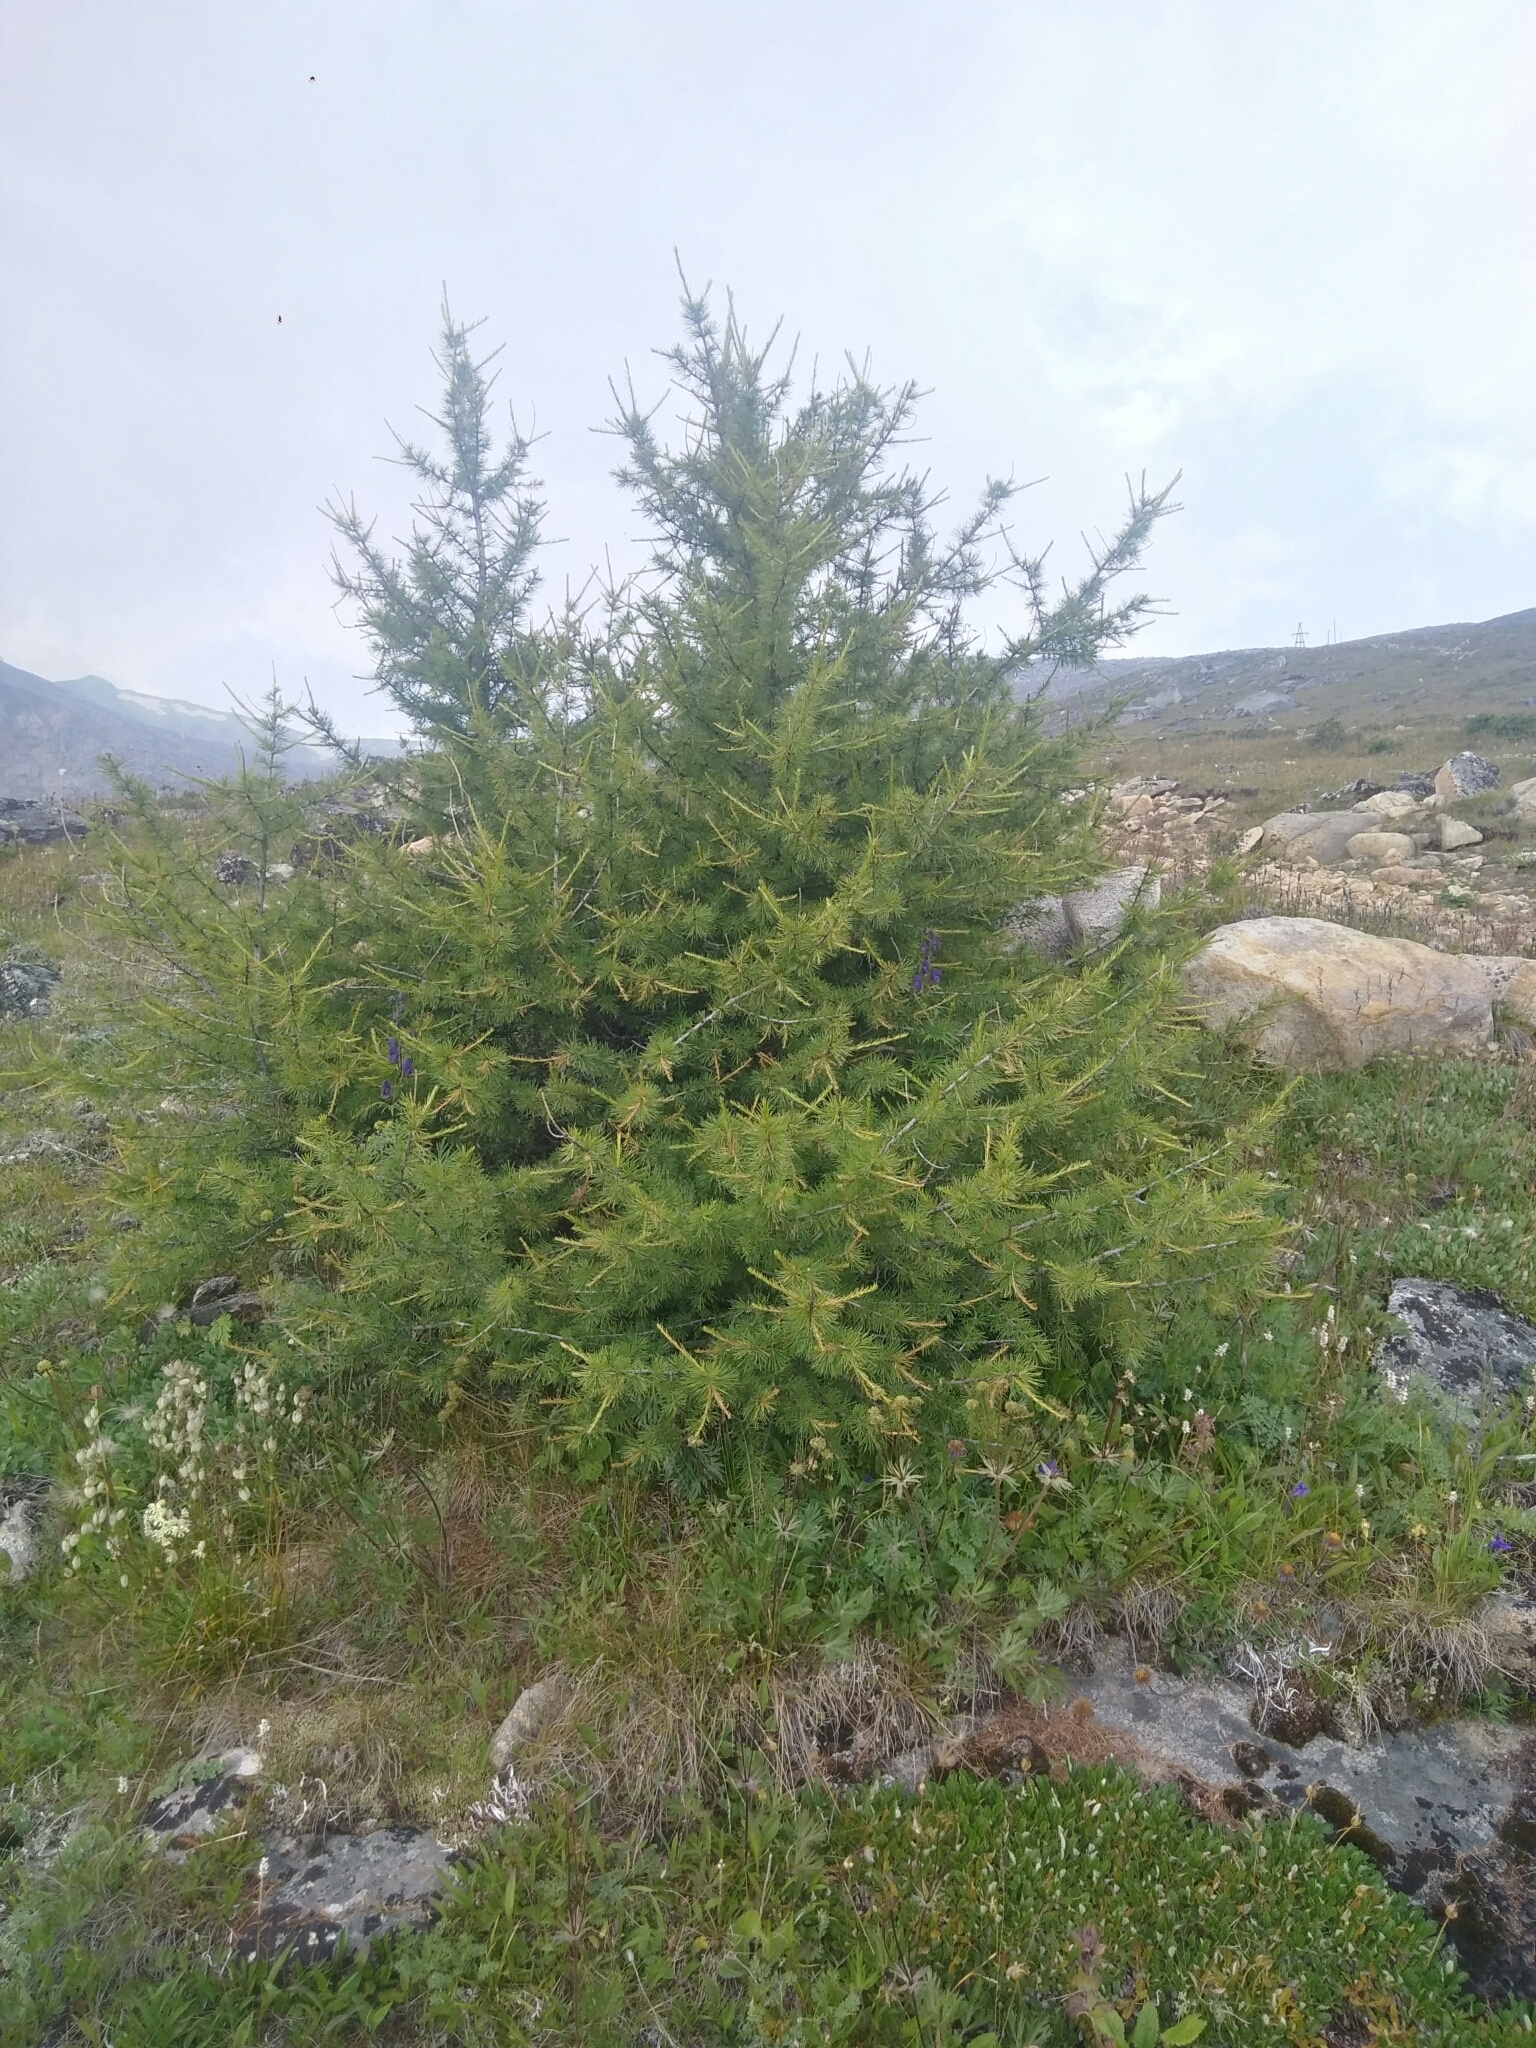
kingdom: Plantae
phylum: Tracheophyta
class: Pinopsida
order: Pinales
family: Pinaceae
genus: Larix
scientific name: Larix sibirica
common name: Siberian larch
